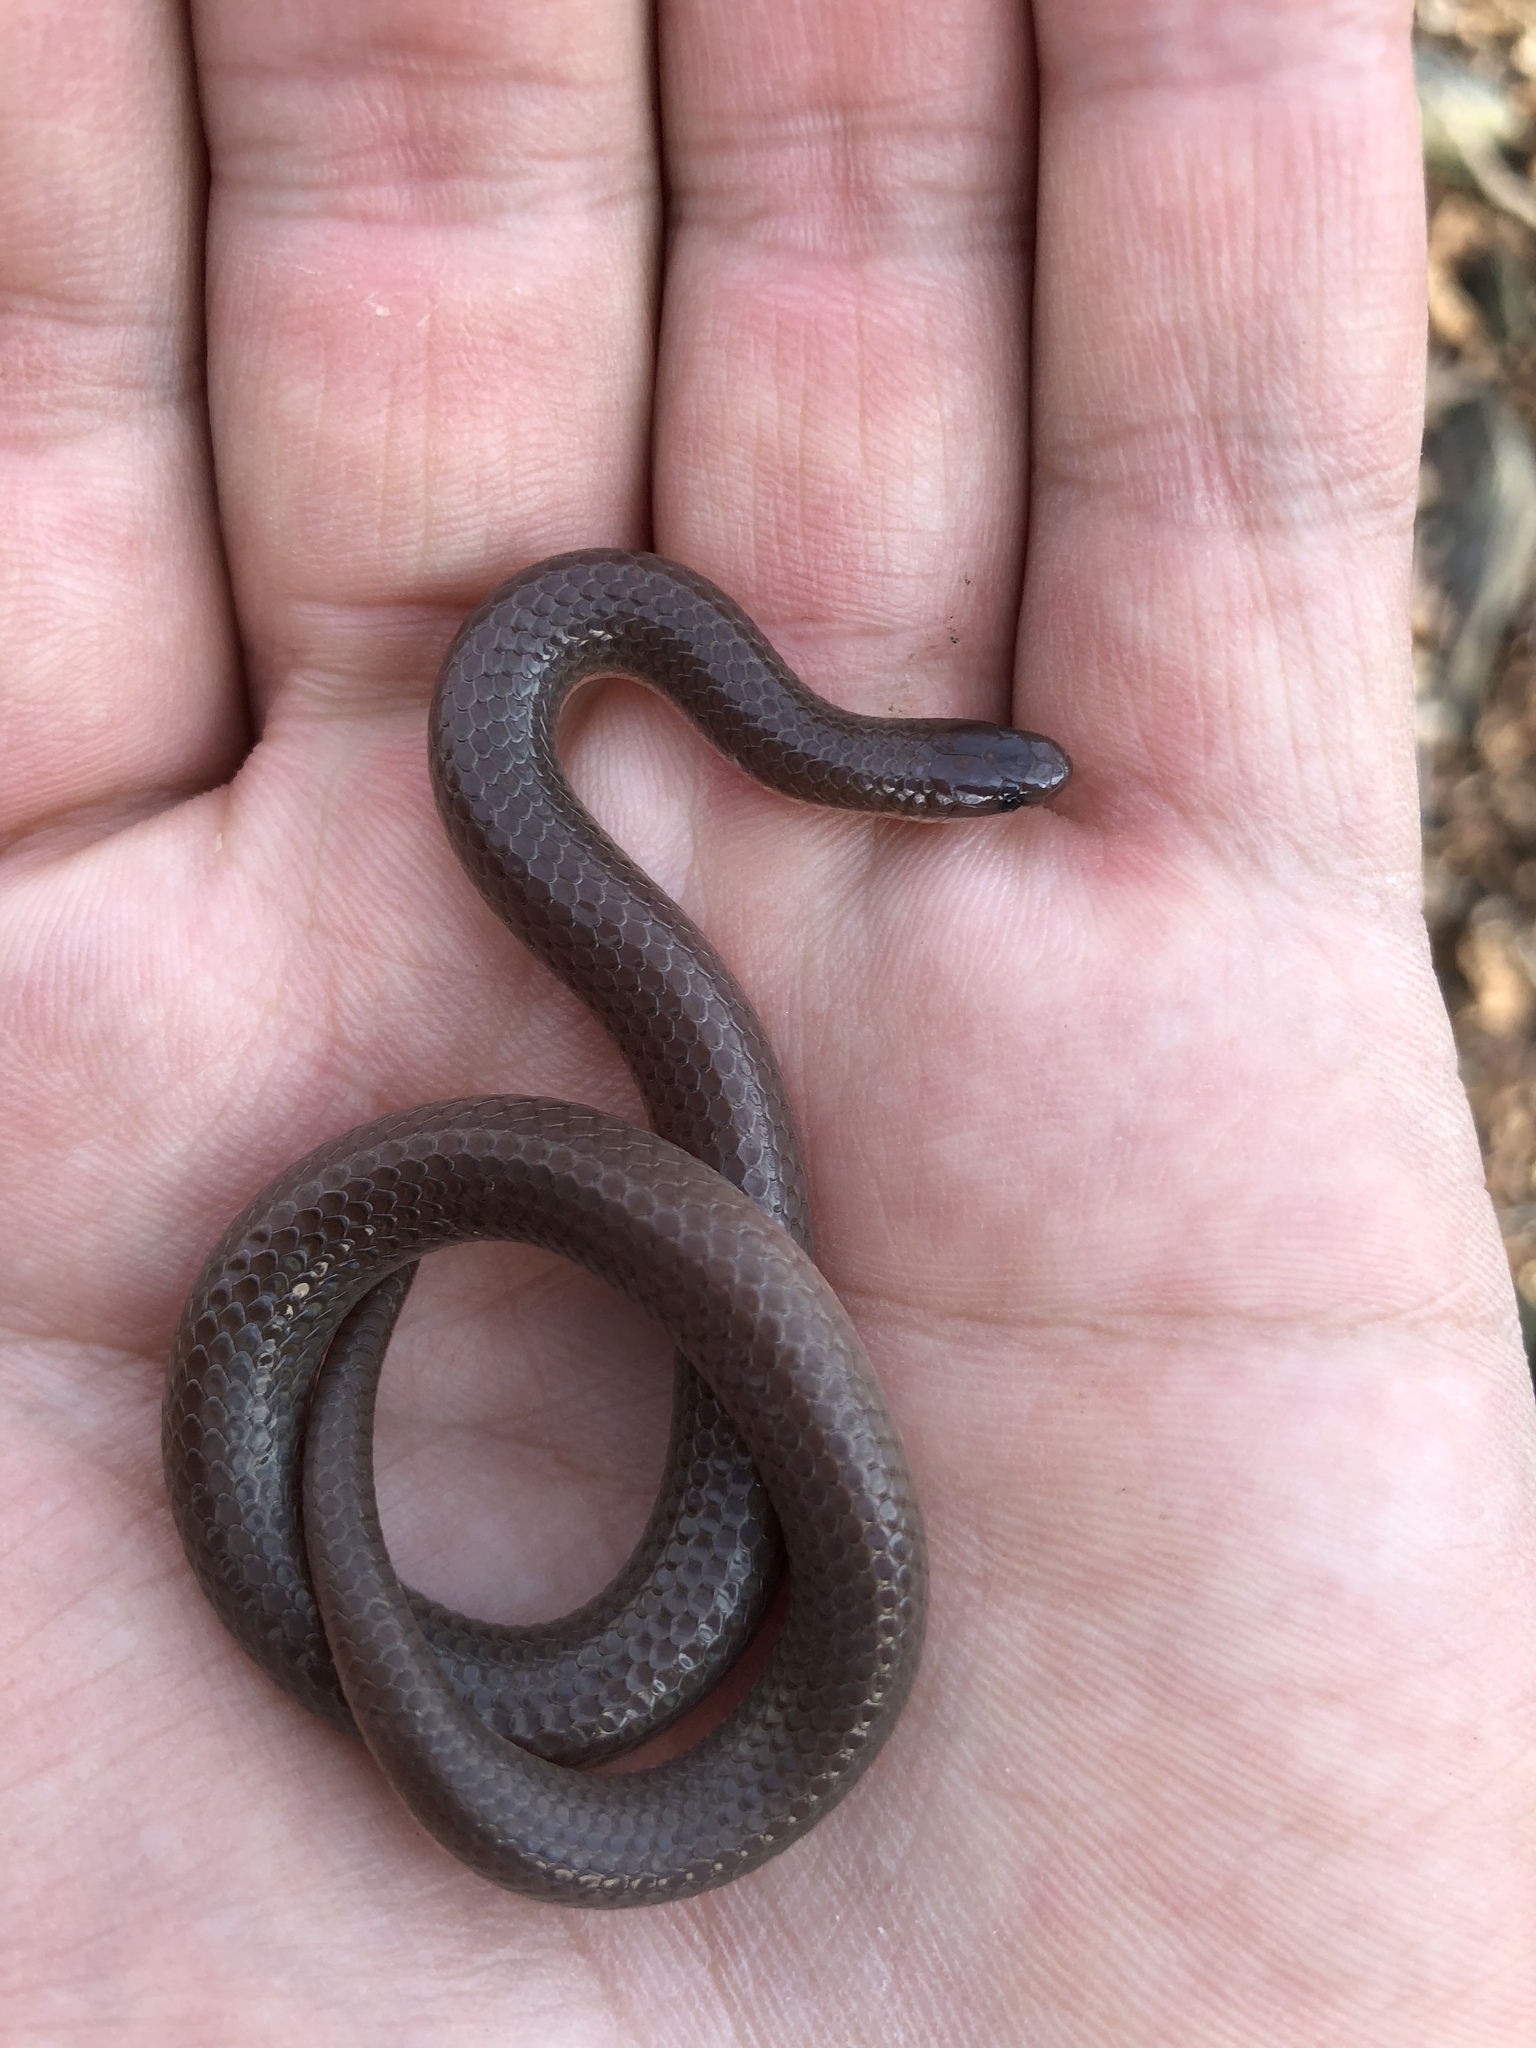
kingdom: Animalia
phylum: Chordata
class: Squamata
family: Colubridae
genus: Carphophis
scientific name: Carphophis amoenus
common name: Eastern worm snake
